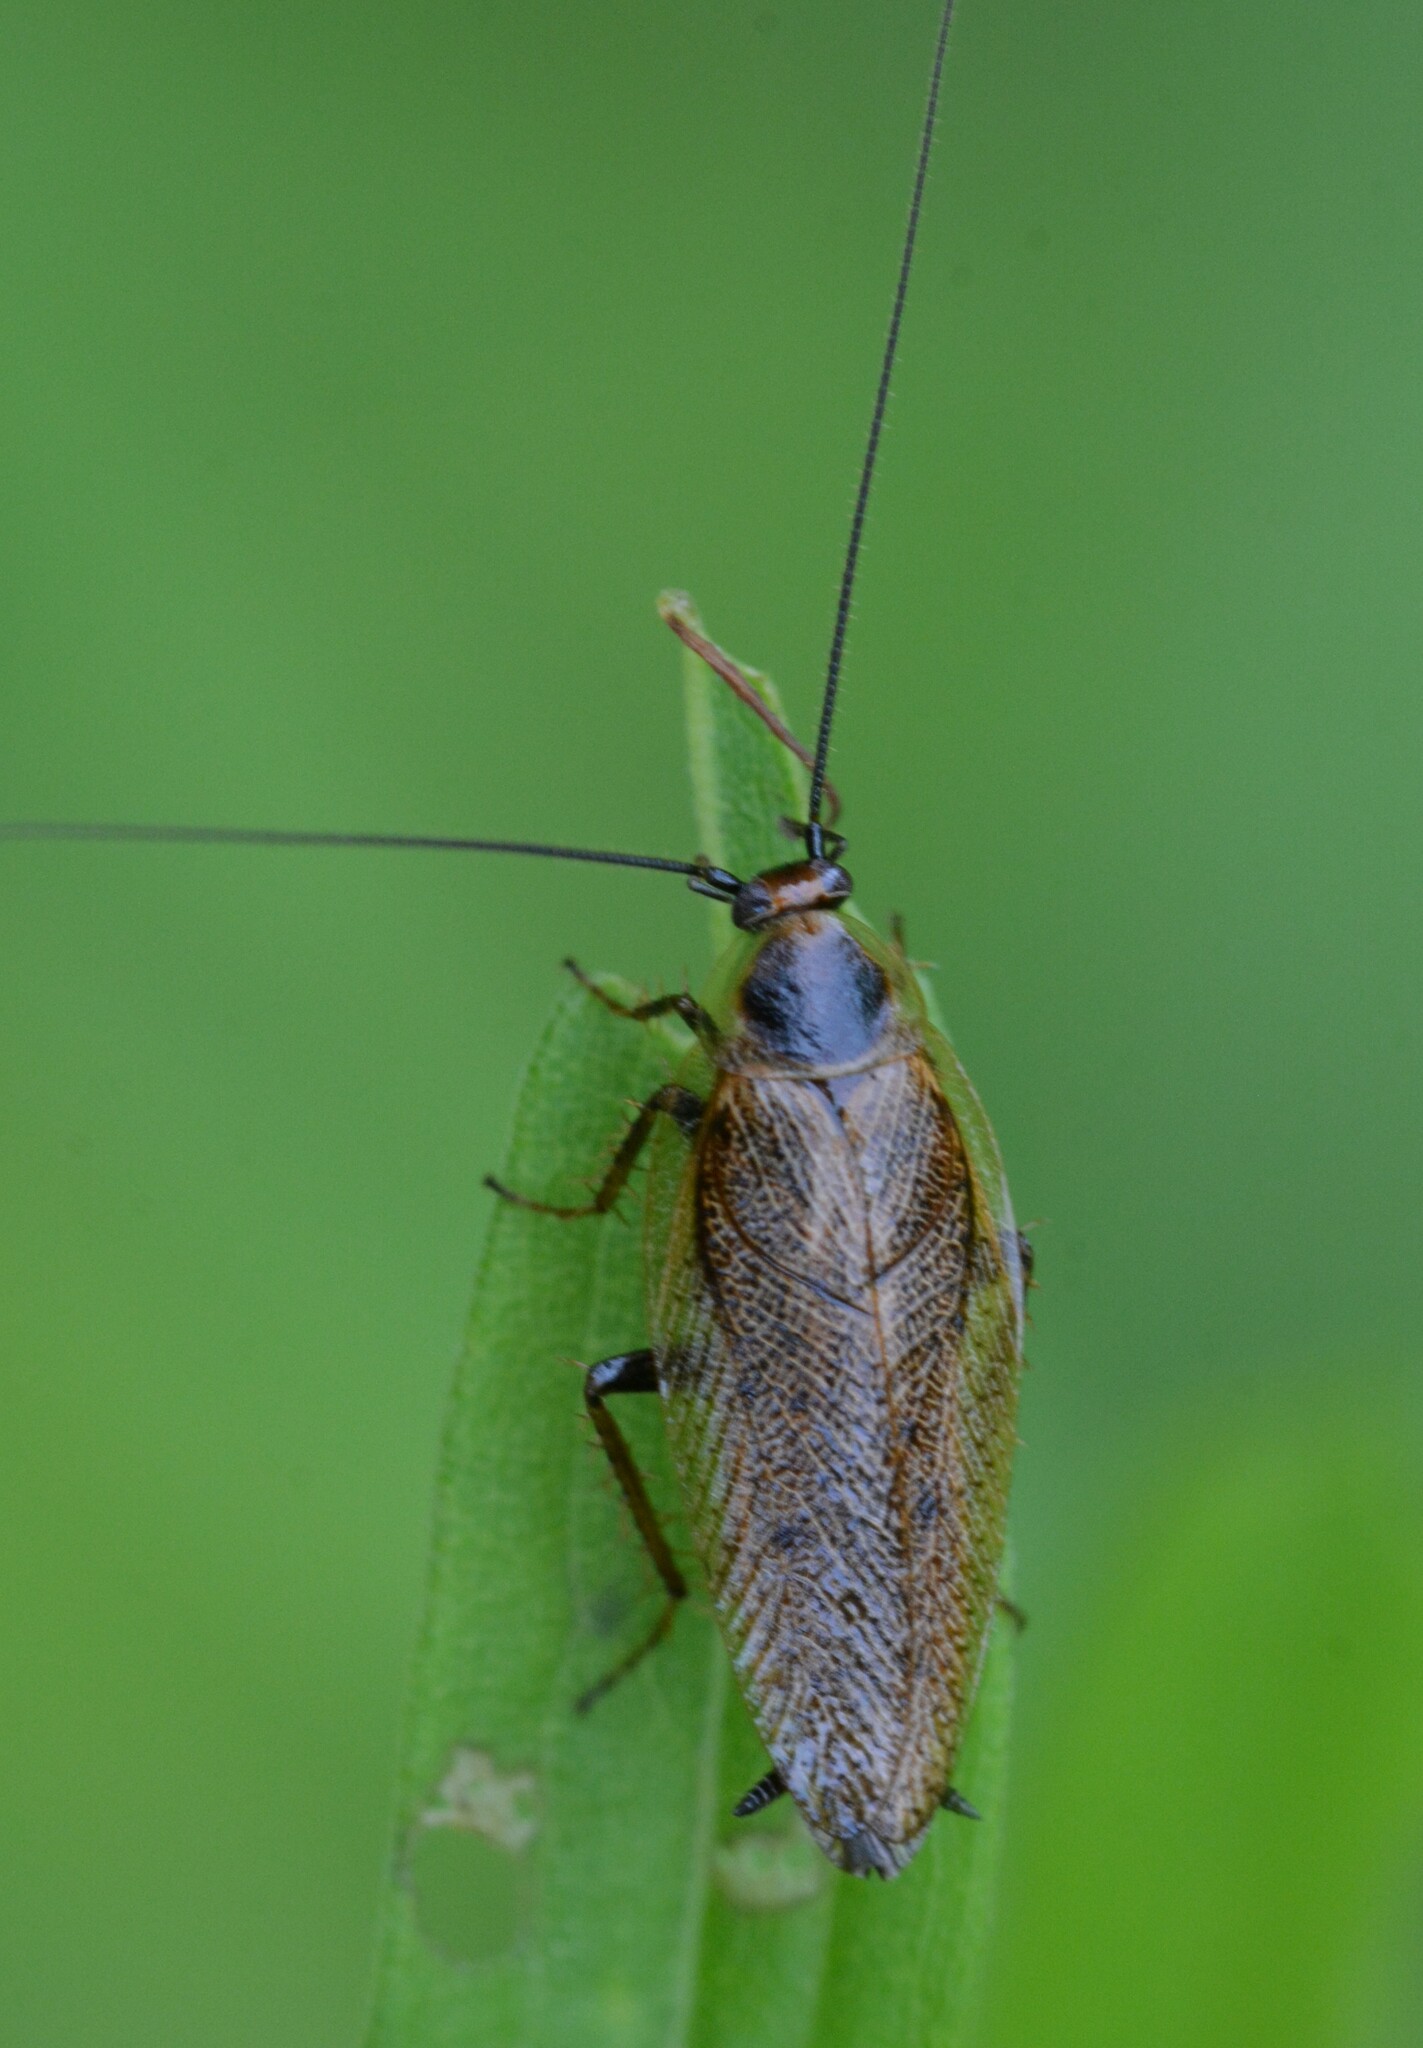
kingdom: Animalia
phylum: Arthropoda
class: Insecta
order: Blattodea
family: Ectobiidae
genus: Ectobius
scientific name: Ectobius lapponicus
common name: Dusky cockroach
